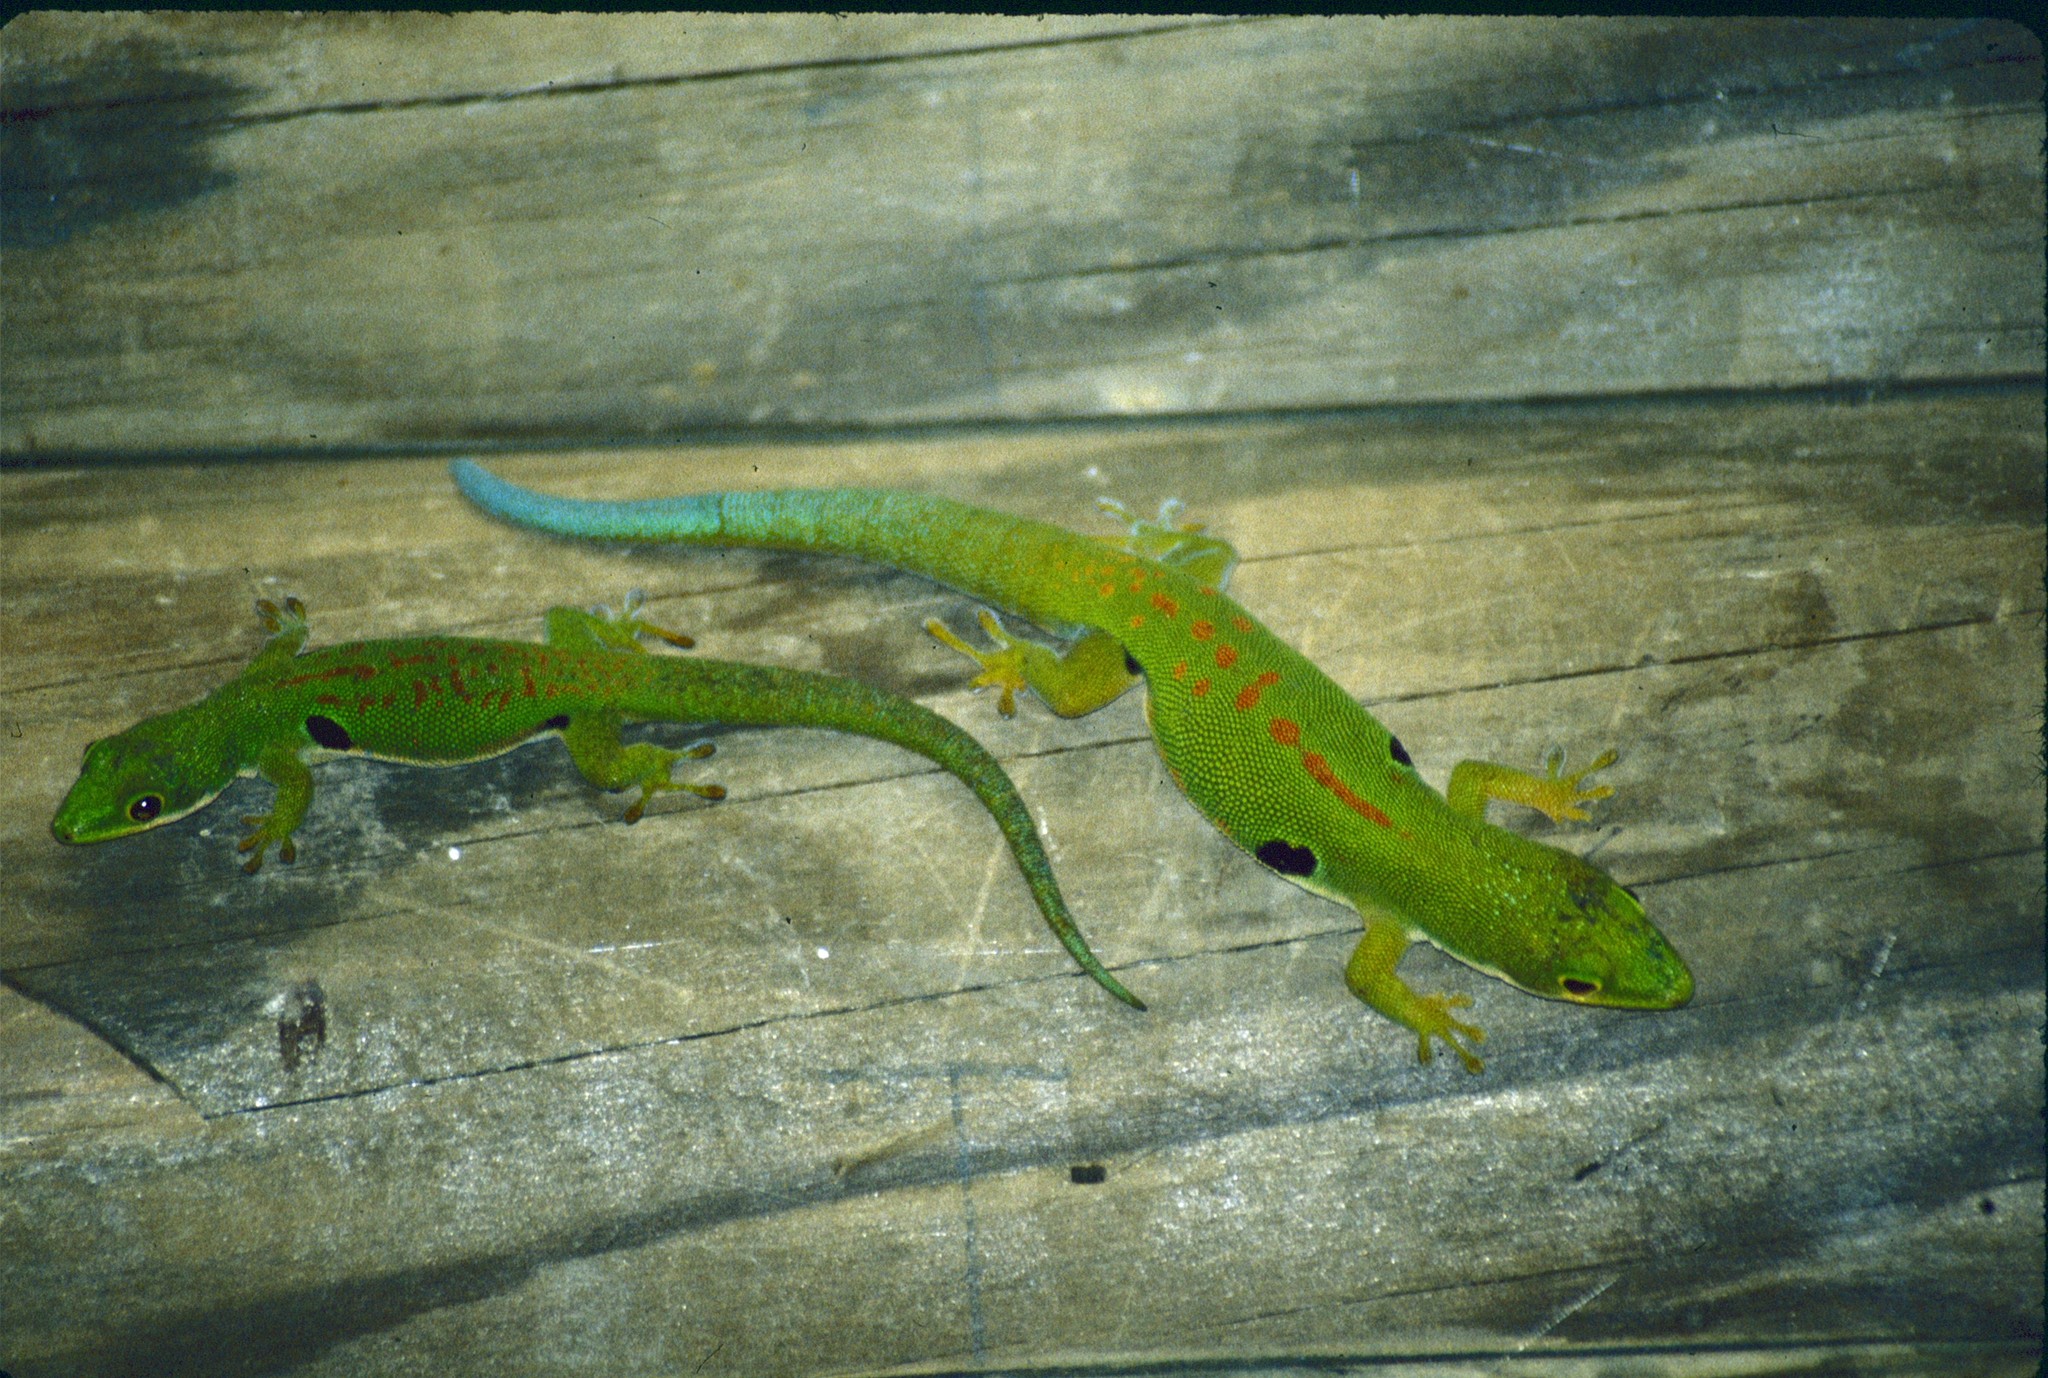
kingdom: Animalia
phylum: Chordata
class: Squamata
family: Gekkonidae
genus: Phelsuma
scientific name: Phelsuma quadriocellata
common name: Peacock day gecko
